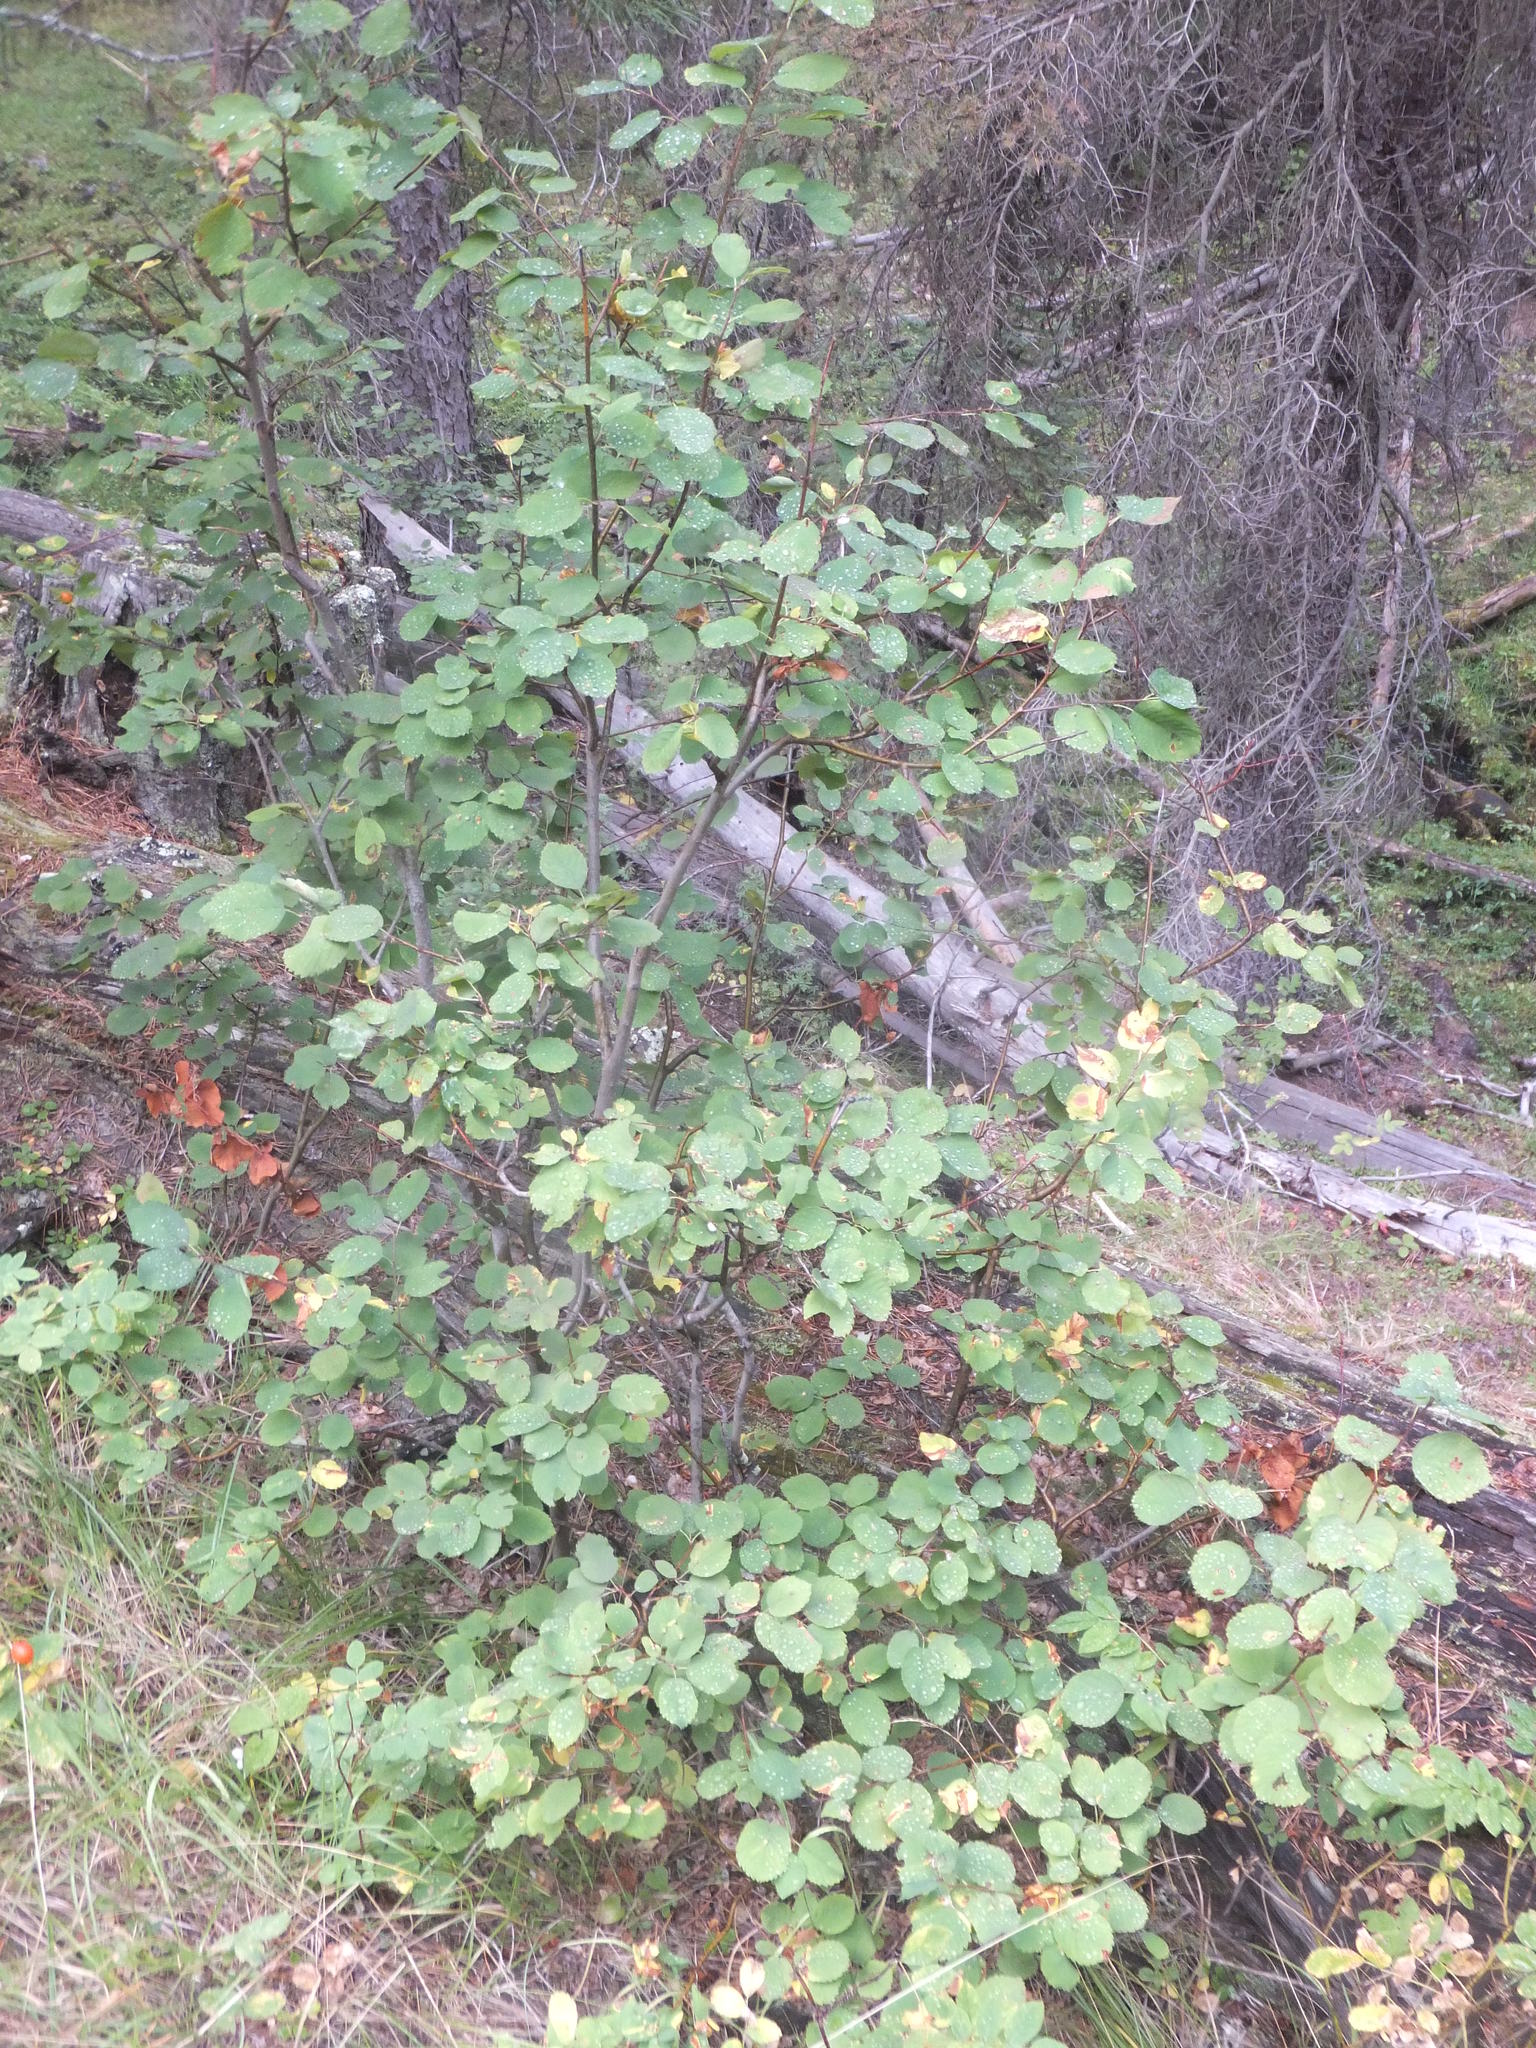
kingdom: Plantae
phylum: Tracheophyta
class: Magnoliopsida
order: Rosales
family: Rosaceae
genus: Amelanchier
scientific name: Amelanchier alnifolia
